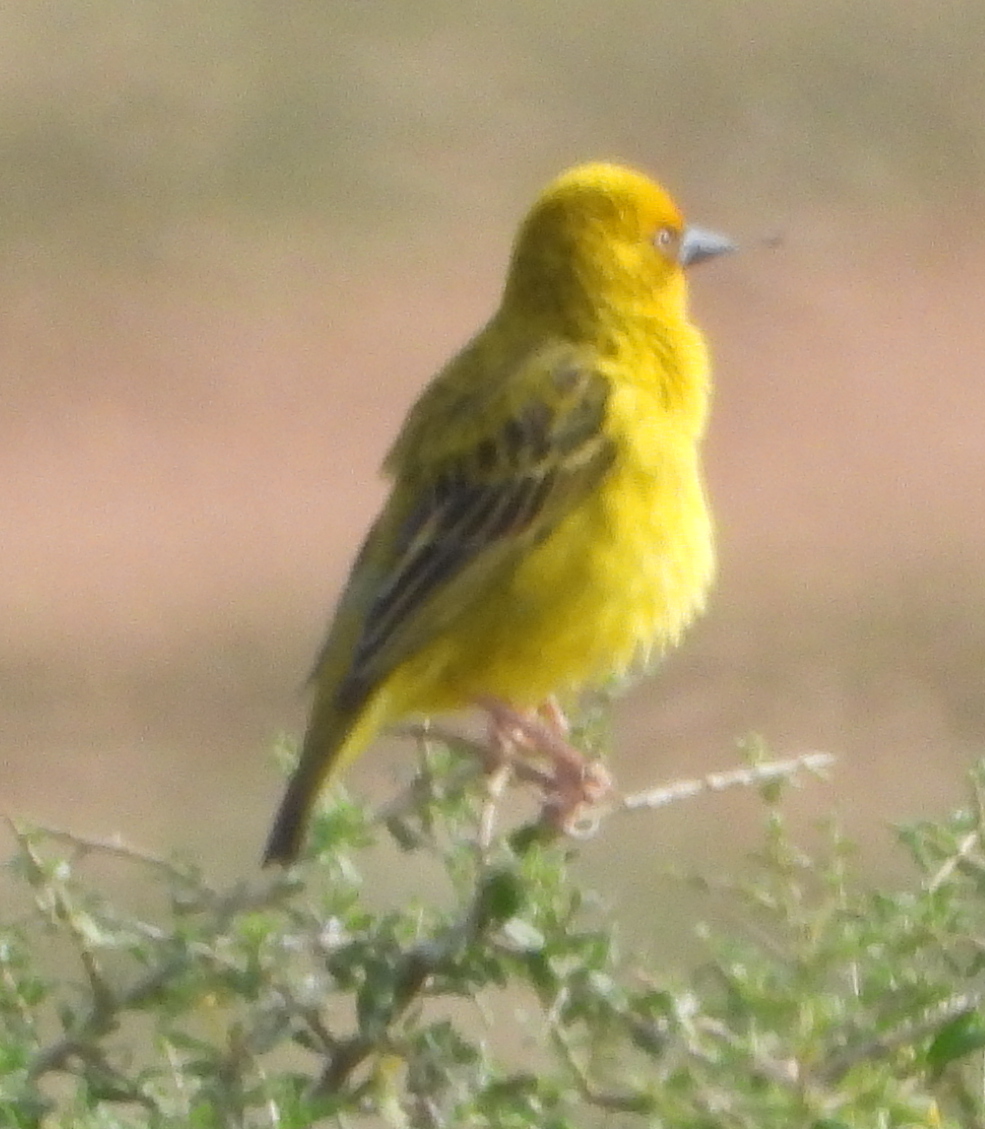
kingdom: Animalia
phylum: Chordata
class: Aves
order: Passeriformes
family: Ploceidae
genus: Ploceus
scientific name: Ploceus capensis
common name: Cape weaver
